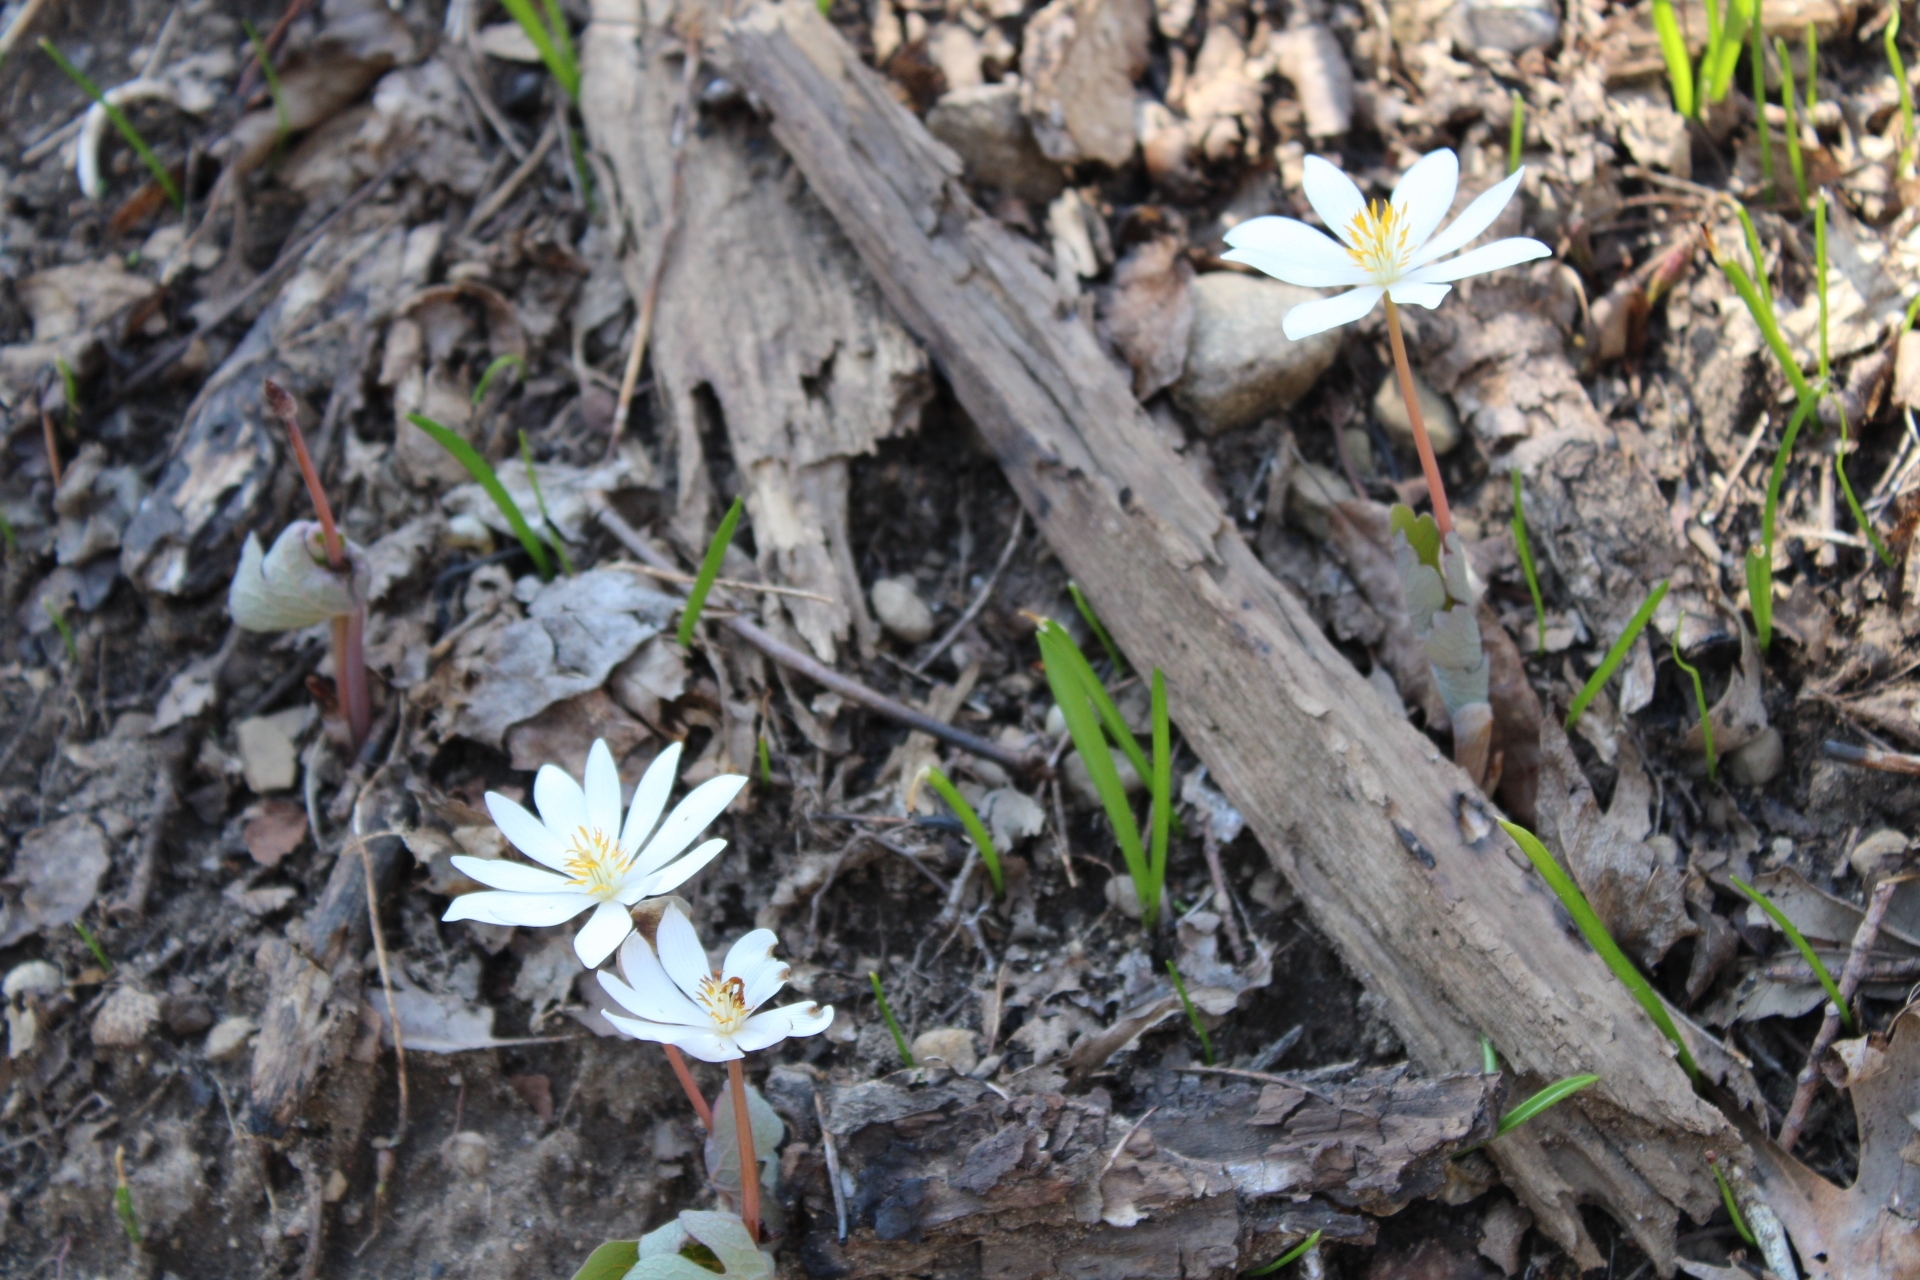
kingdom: Plantae
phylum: Tracheophyta
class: Magnoliopsida
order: Ranunculales
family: Papaveraceae
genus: Sanguinaria
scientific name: Sanguinaria canadensis
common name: Bloodroot
